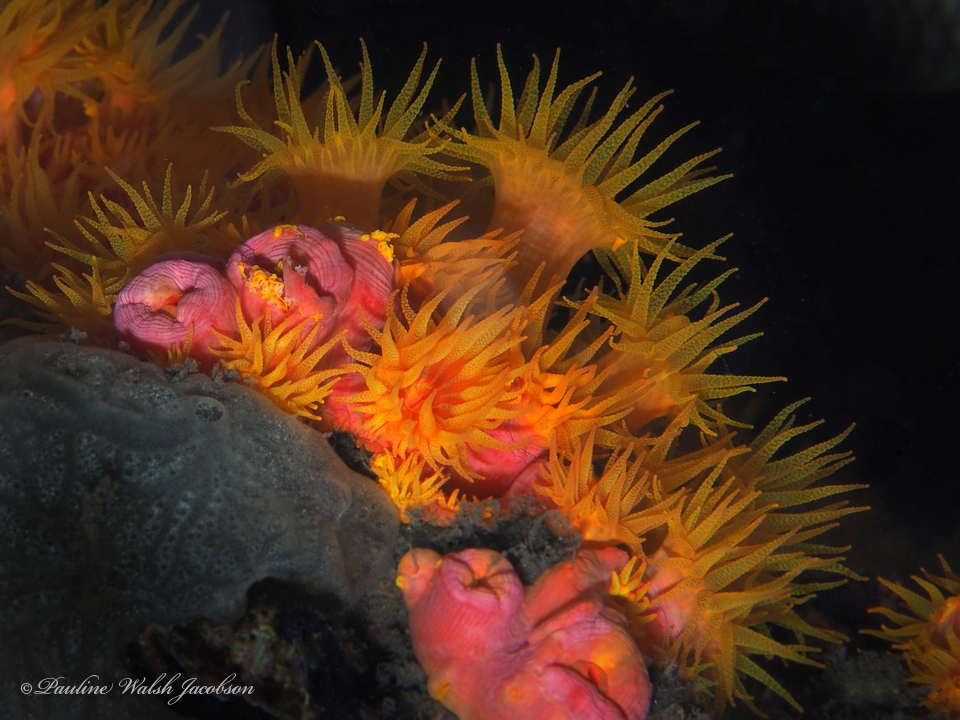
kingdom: Animalia
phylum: Cnidaria
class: Anthozoa
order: Scleractinia
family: Dendrophylliidae
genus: Tubastraea
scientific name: Tubastraea coccinea
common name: Orange cup coral
